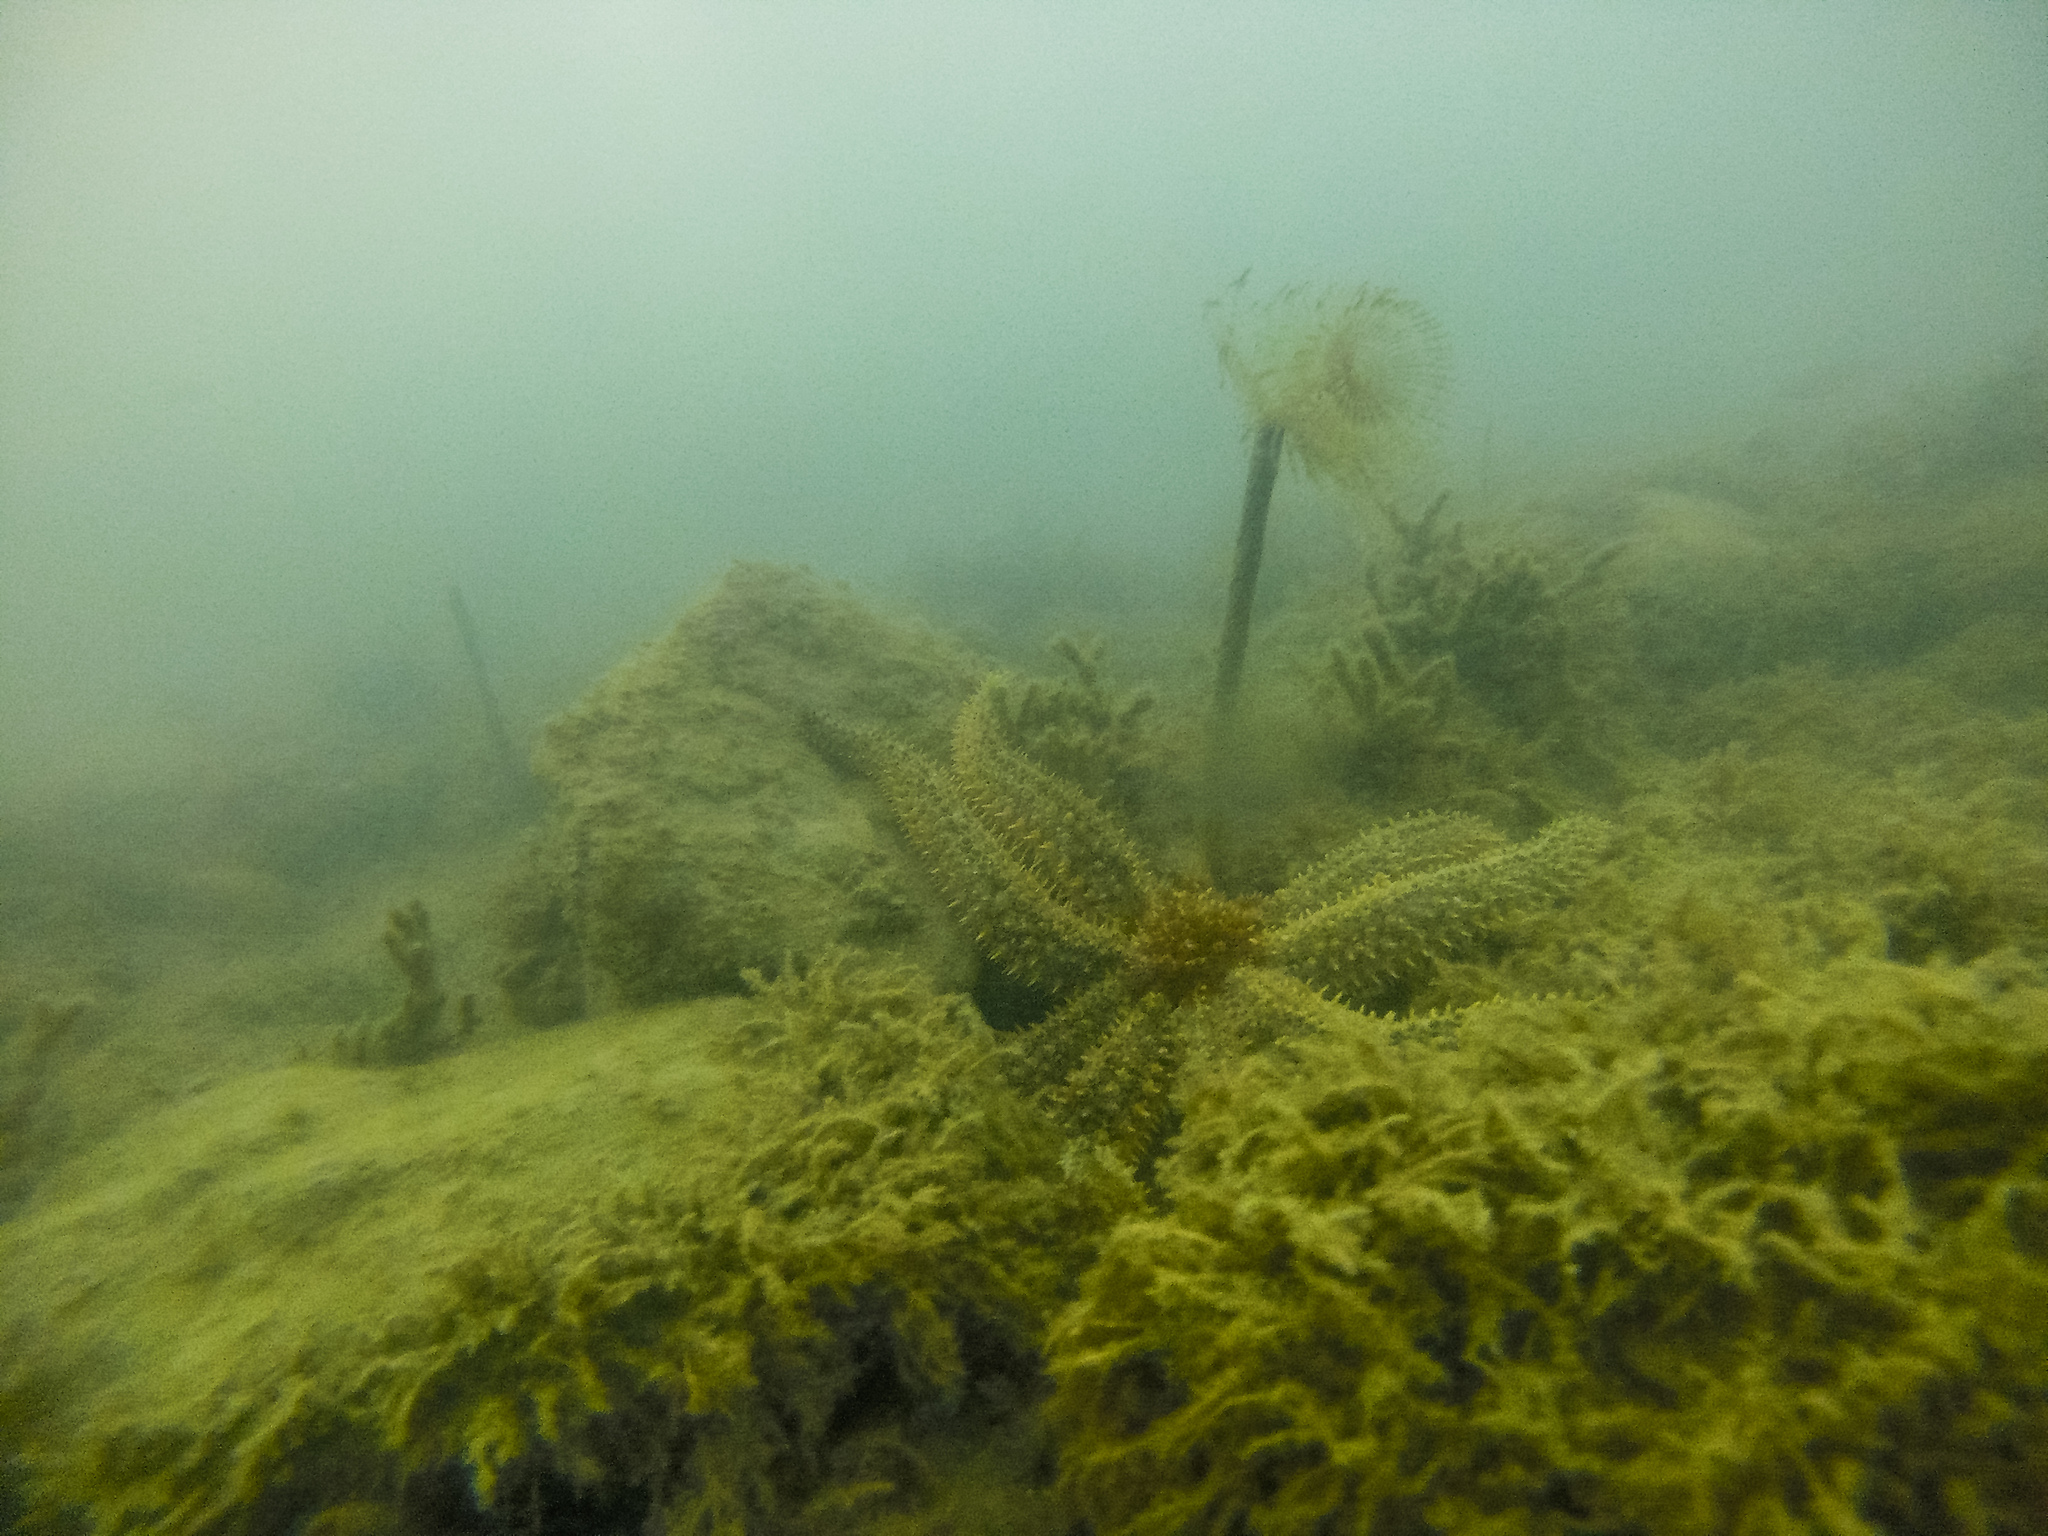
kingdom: Animalia
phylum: Echinodermata
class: Asteroidea
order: Forcipulatida
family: Asteriidae
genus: Coscinasterias
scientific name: Coscinasterias muricata
